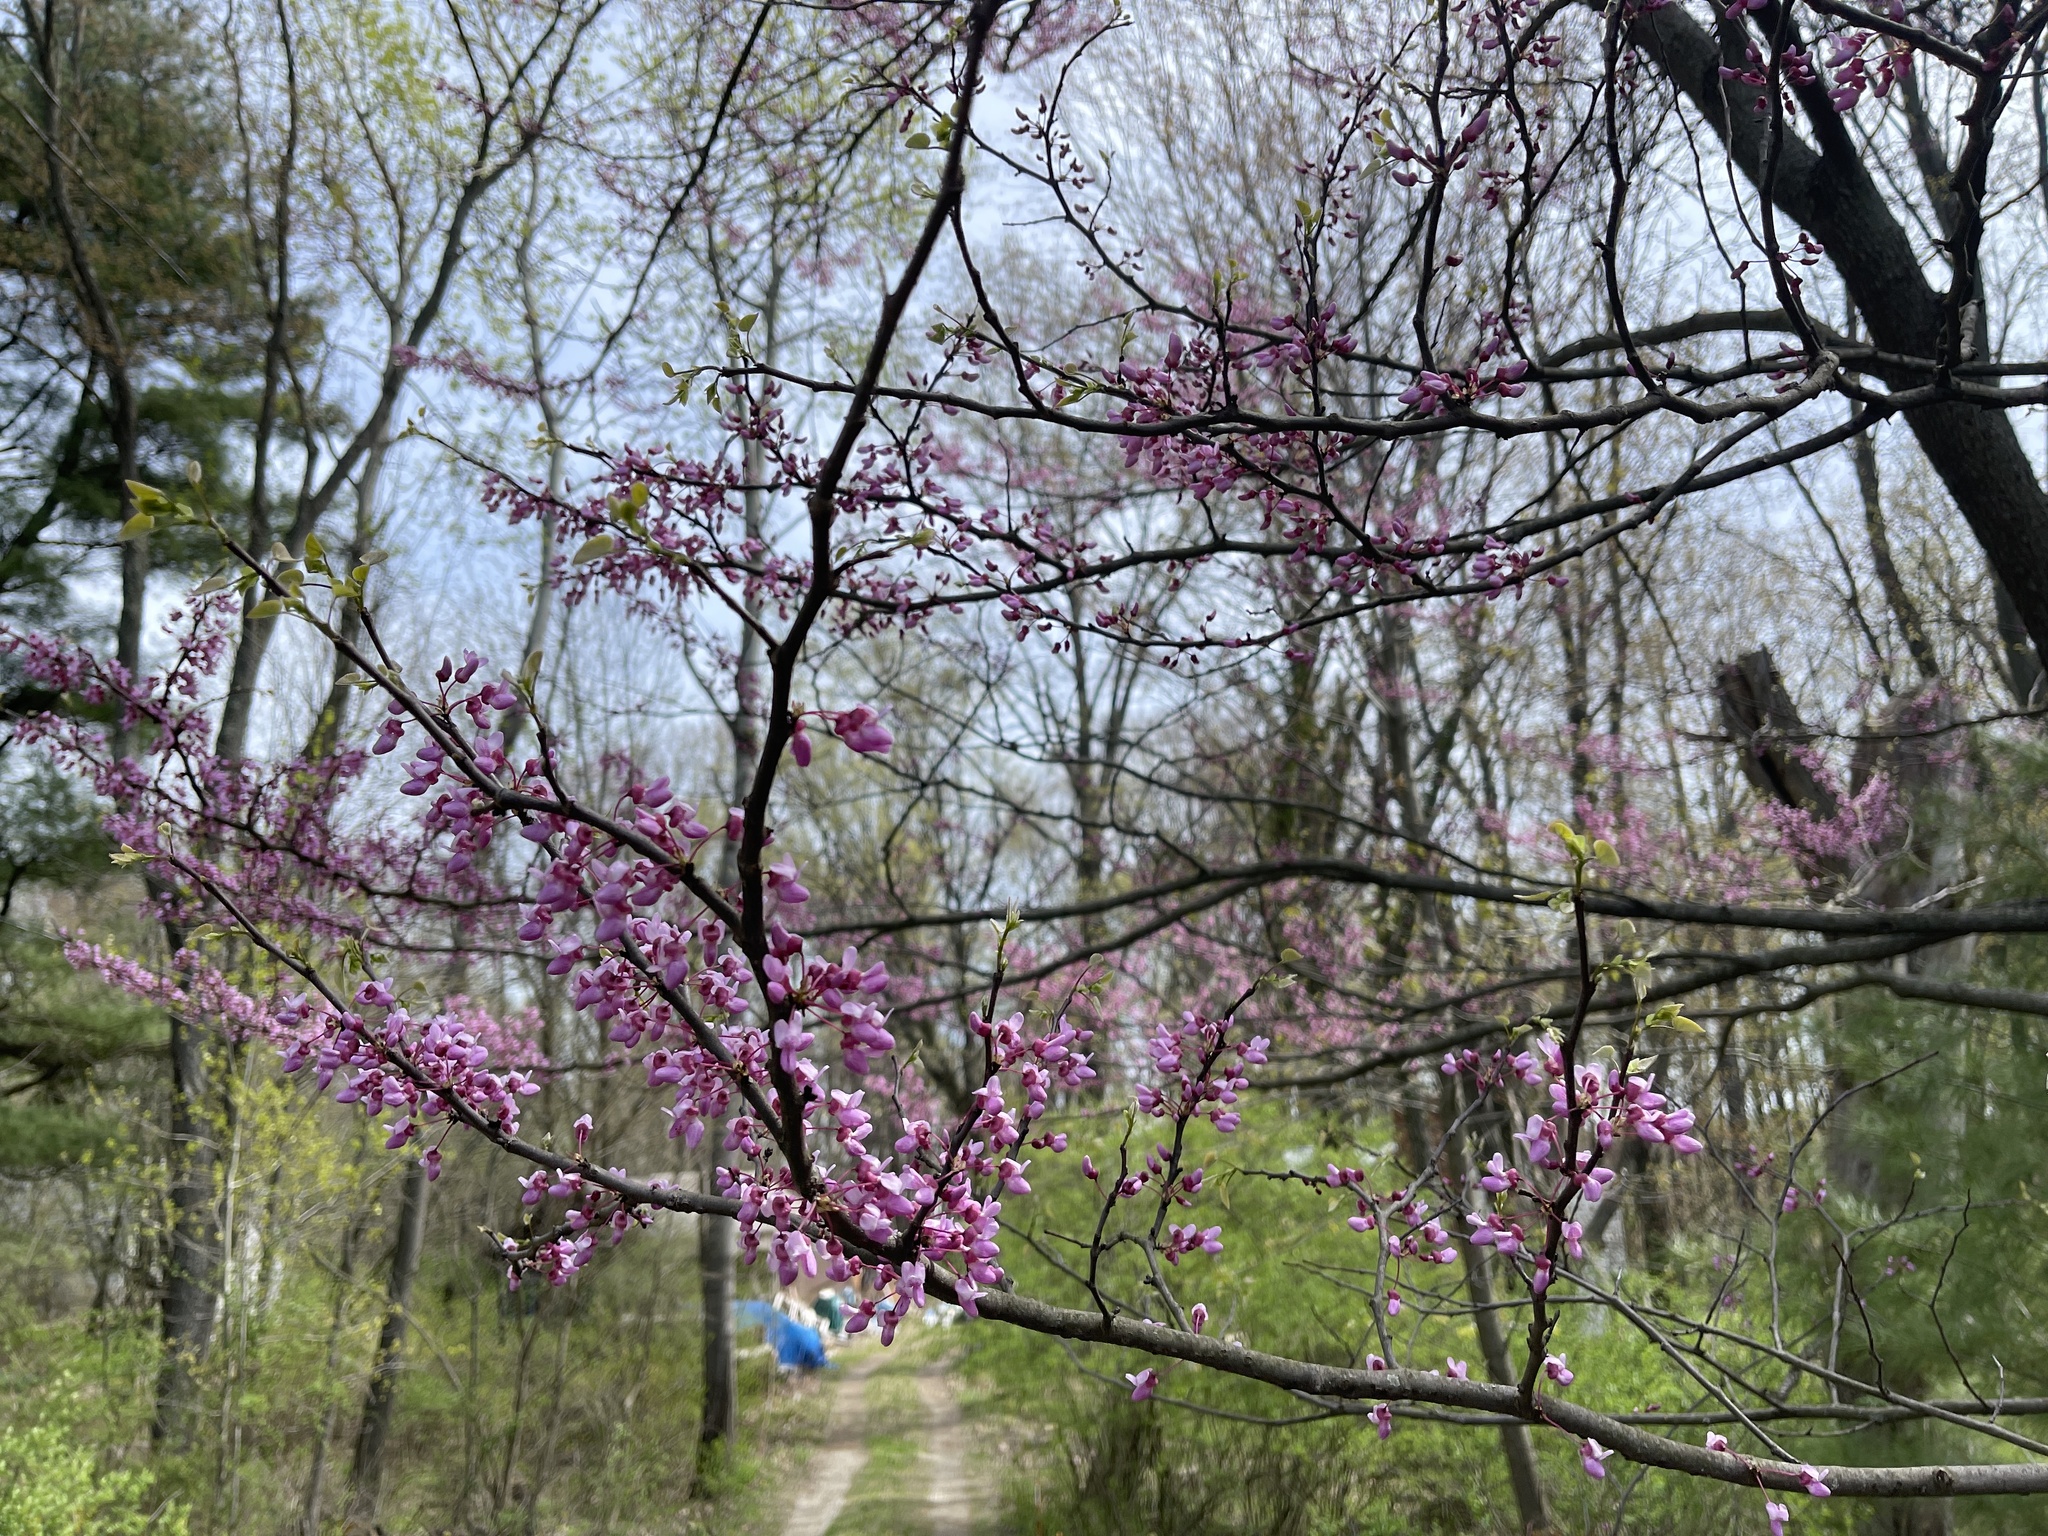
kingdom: Plantae
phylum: Tracheophyta
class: Magnoliopsida
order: Fabales
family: Fabaceae
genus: Cercis
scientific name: Cercis canadensis
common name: Eastern redbud
